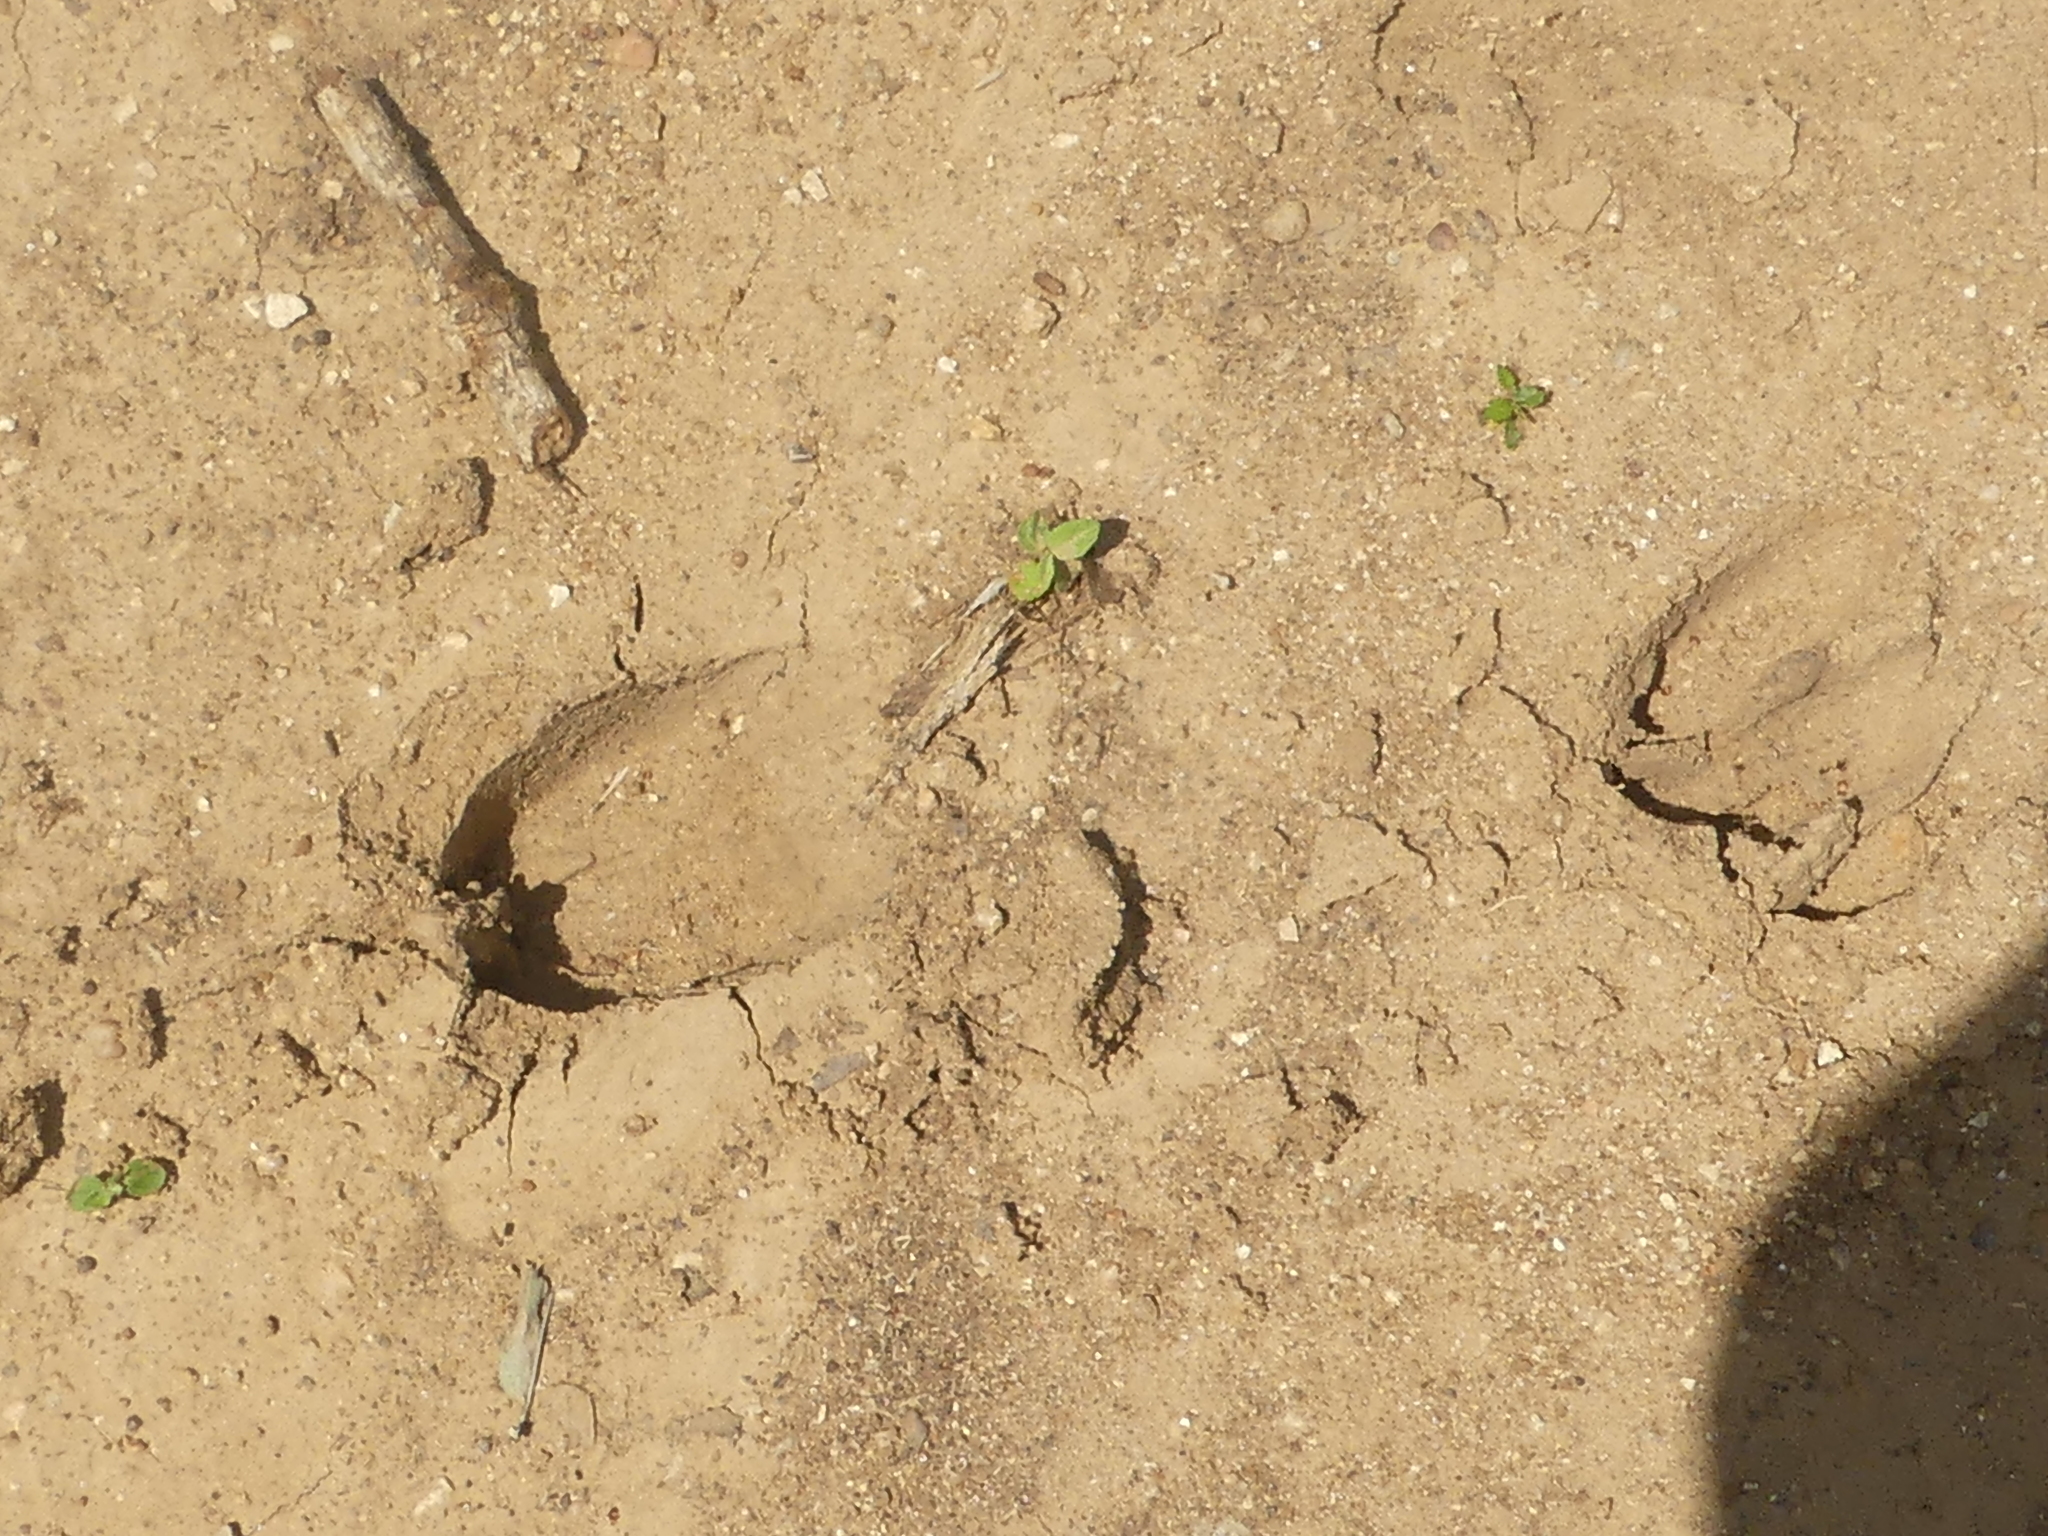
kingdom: Animalia
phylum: Chordata
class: Mammalia
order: Artiodactyla
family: Cervidae
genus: Odocoileus
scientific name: Odocoileus virginianus
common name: White-tailed deer
